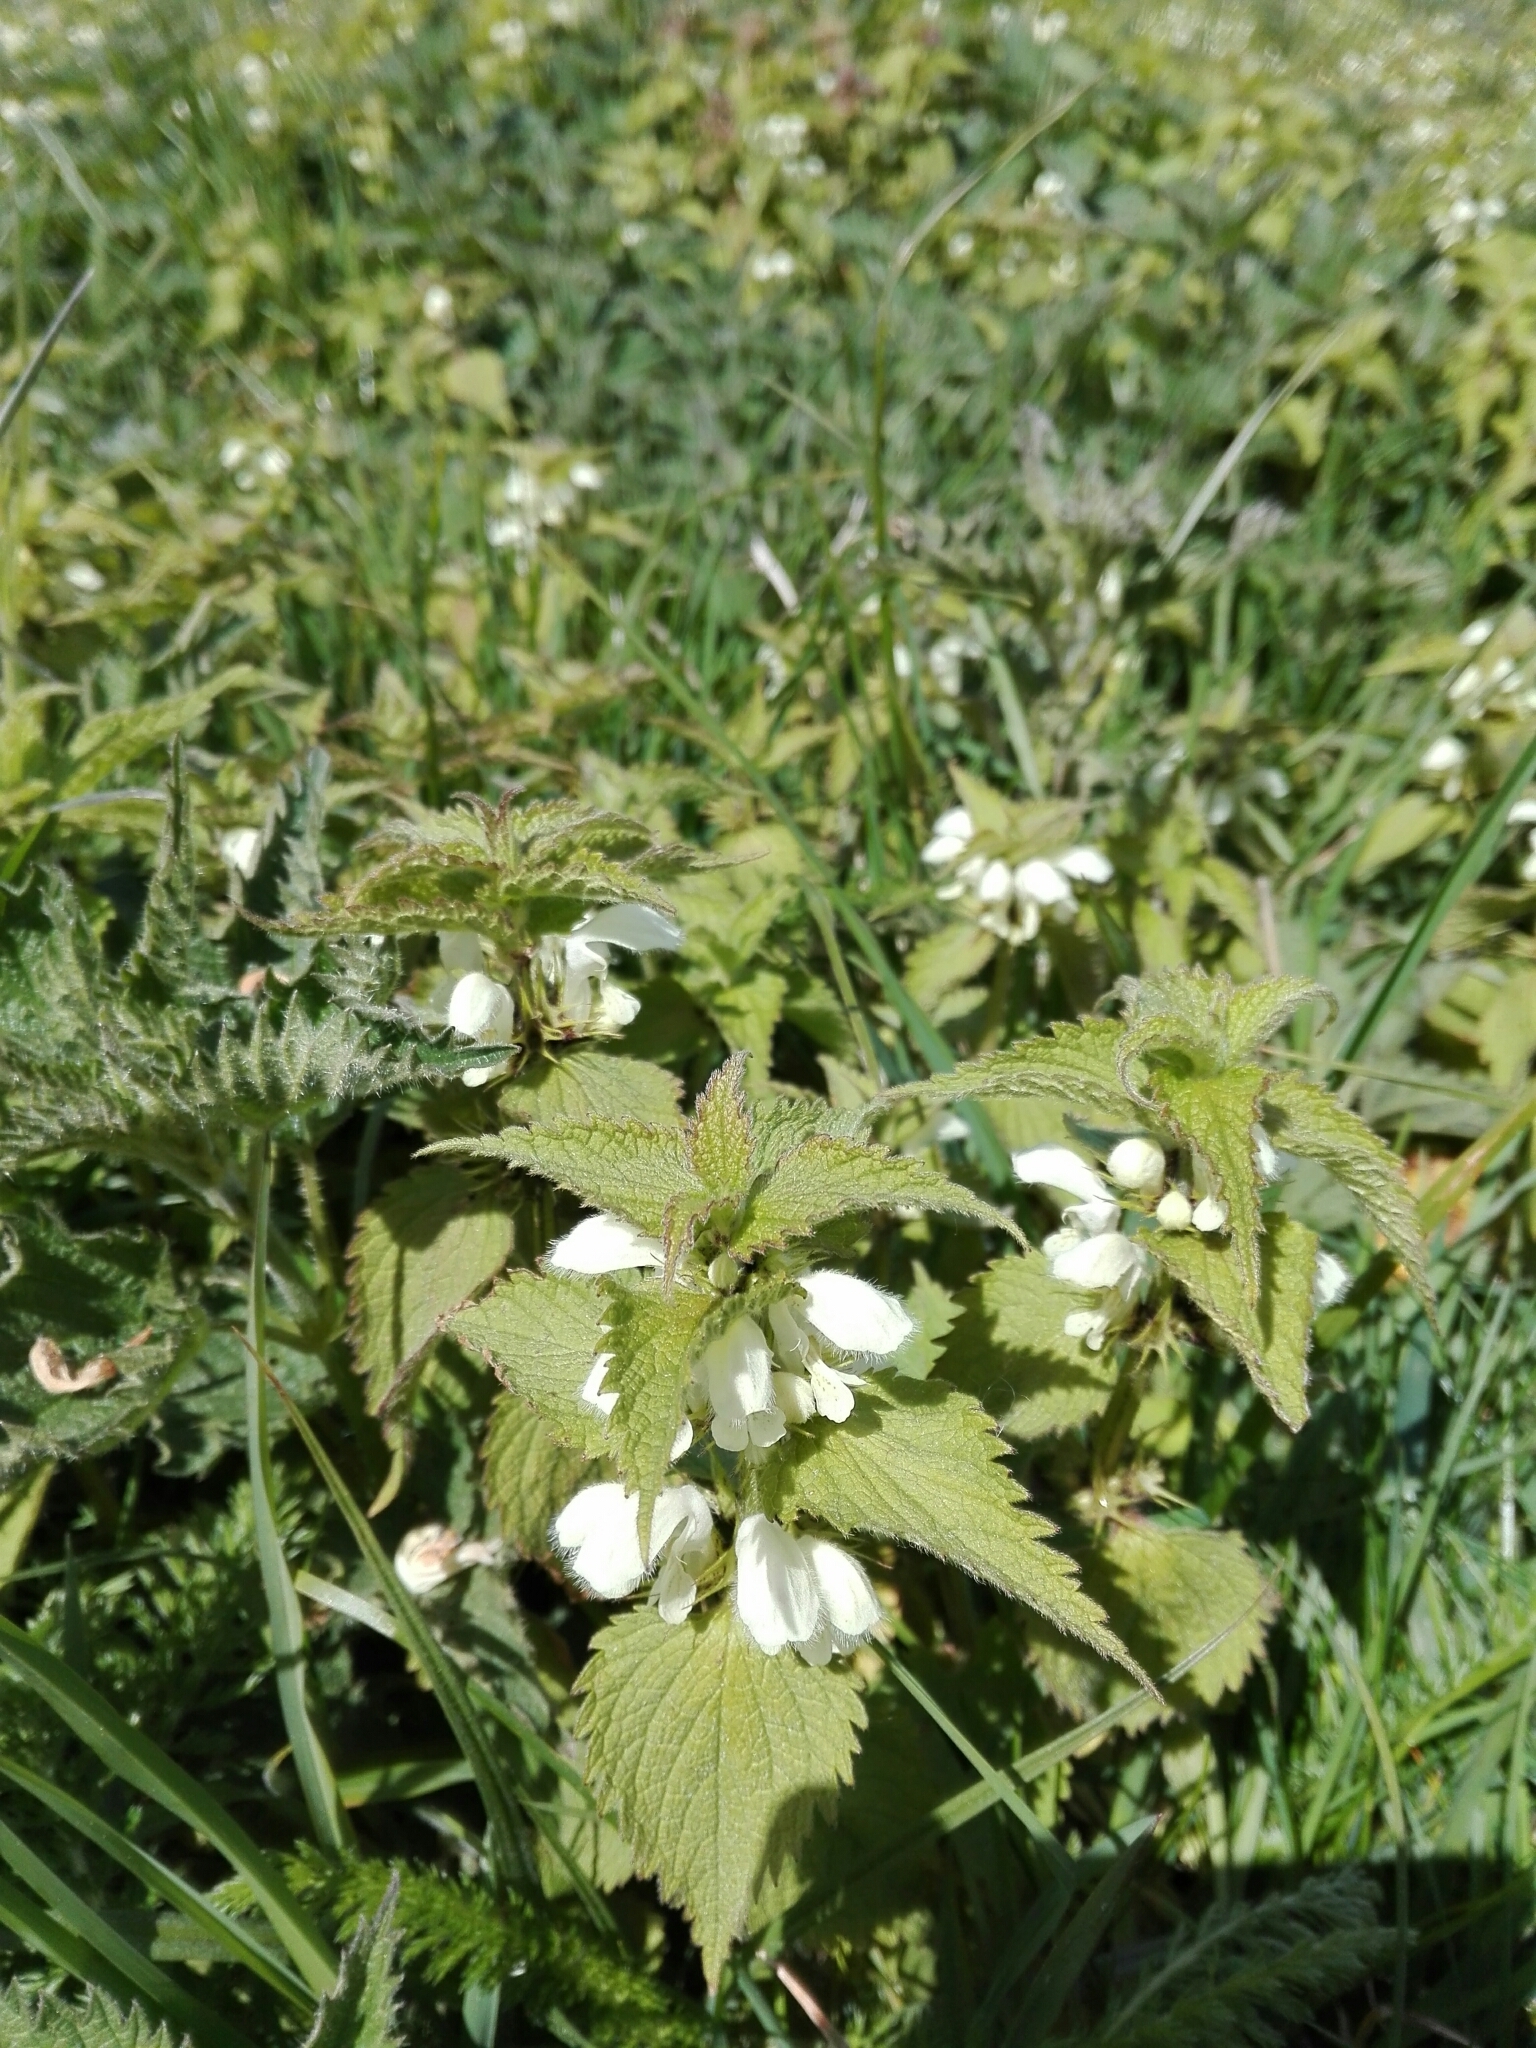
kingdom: Plantae
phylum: Tracheophyta
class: Magnoliopsida
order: Lamiales
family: Lamiaceae
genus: Lamium
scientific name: Lamium album
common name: White dead-nettle
